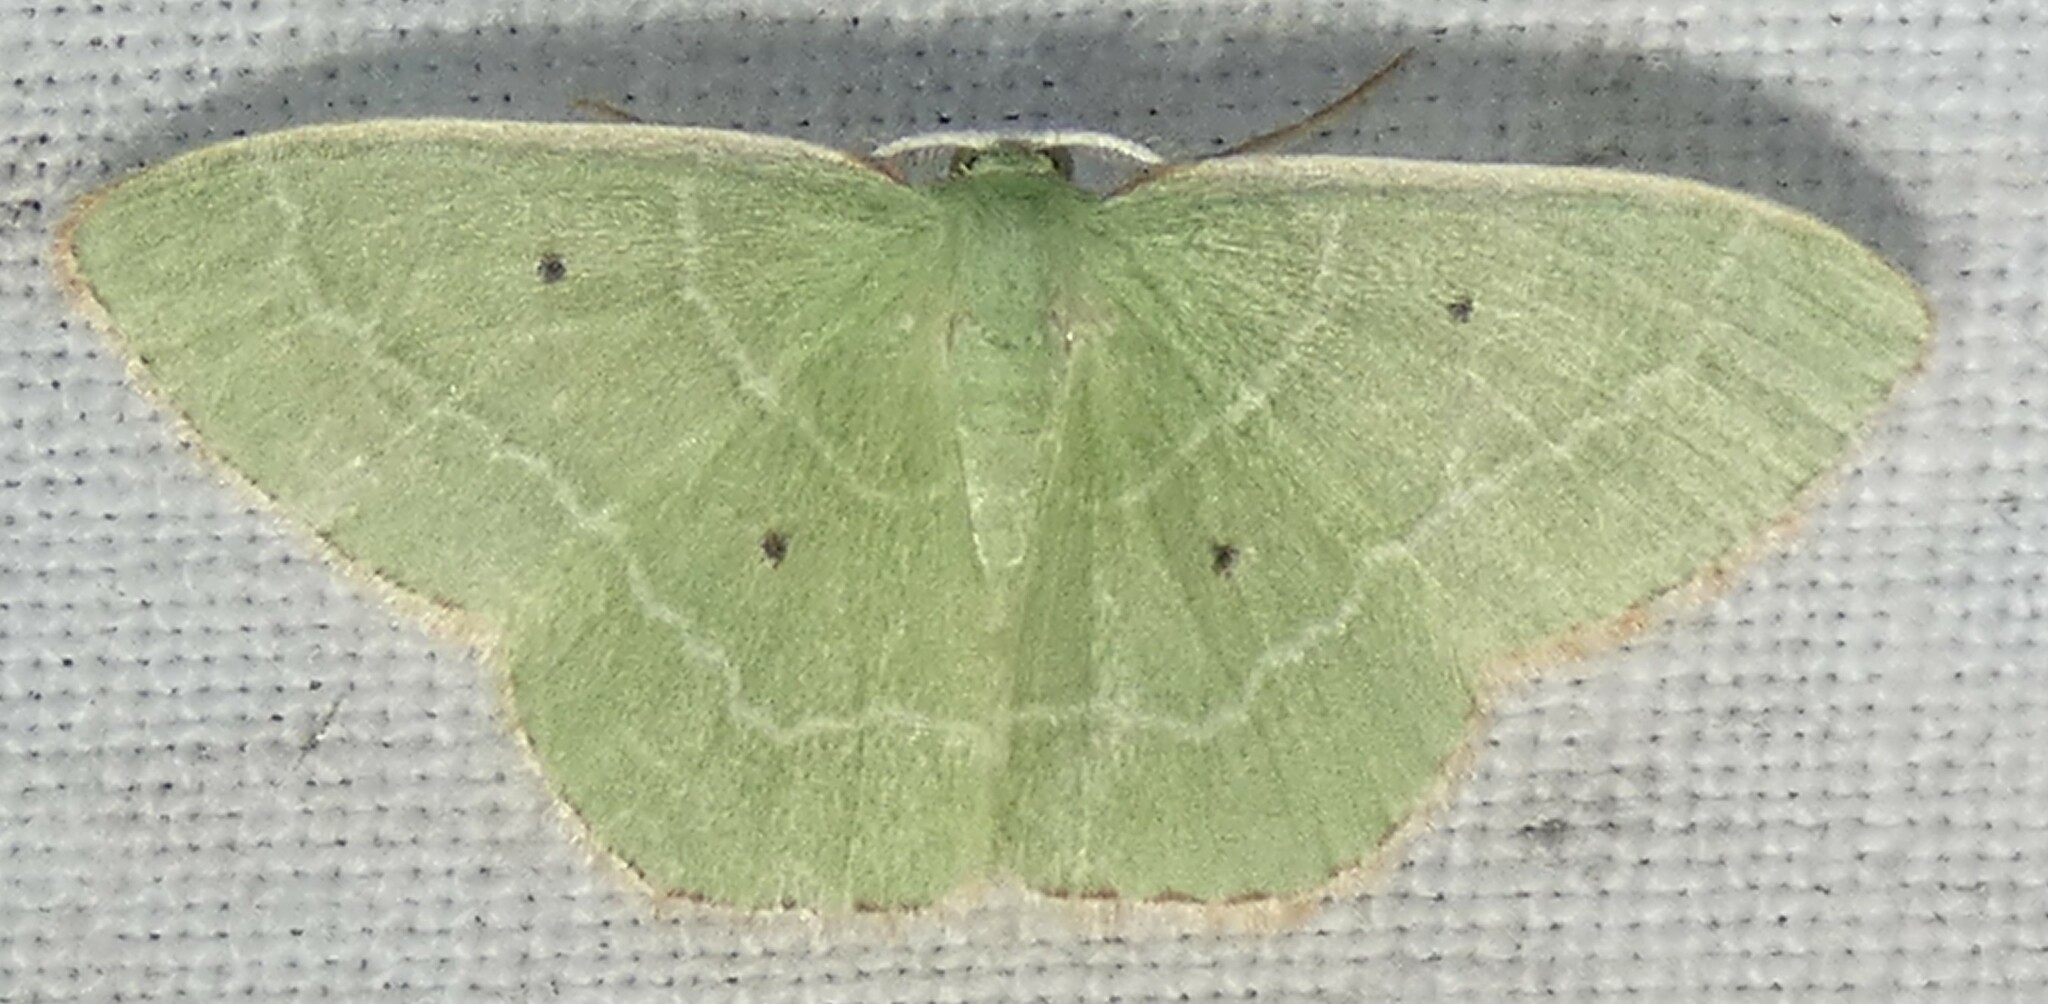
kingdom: Animalia
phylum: Arthropoda
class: Insecta
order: Lepidoptera
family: Geometridae
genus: Nemoria
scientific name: Nemoria elfa
